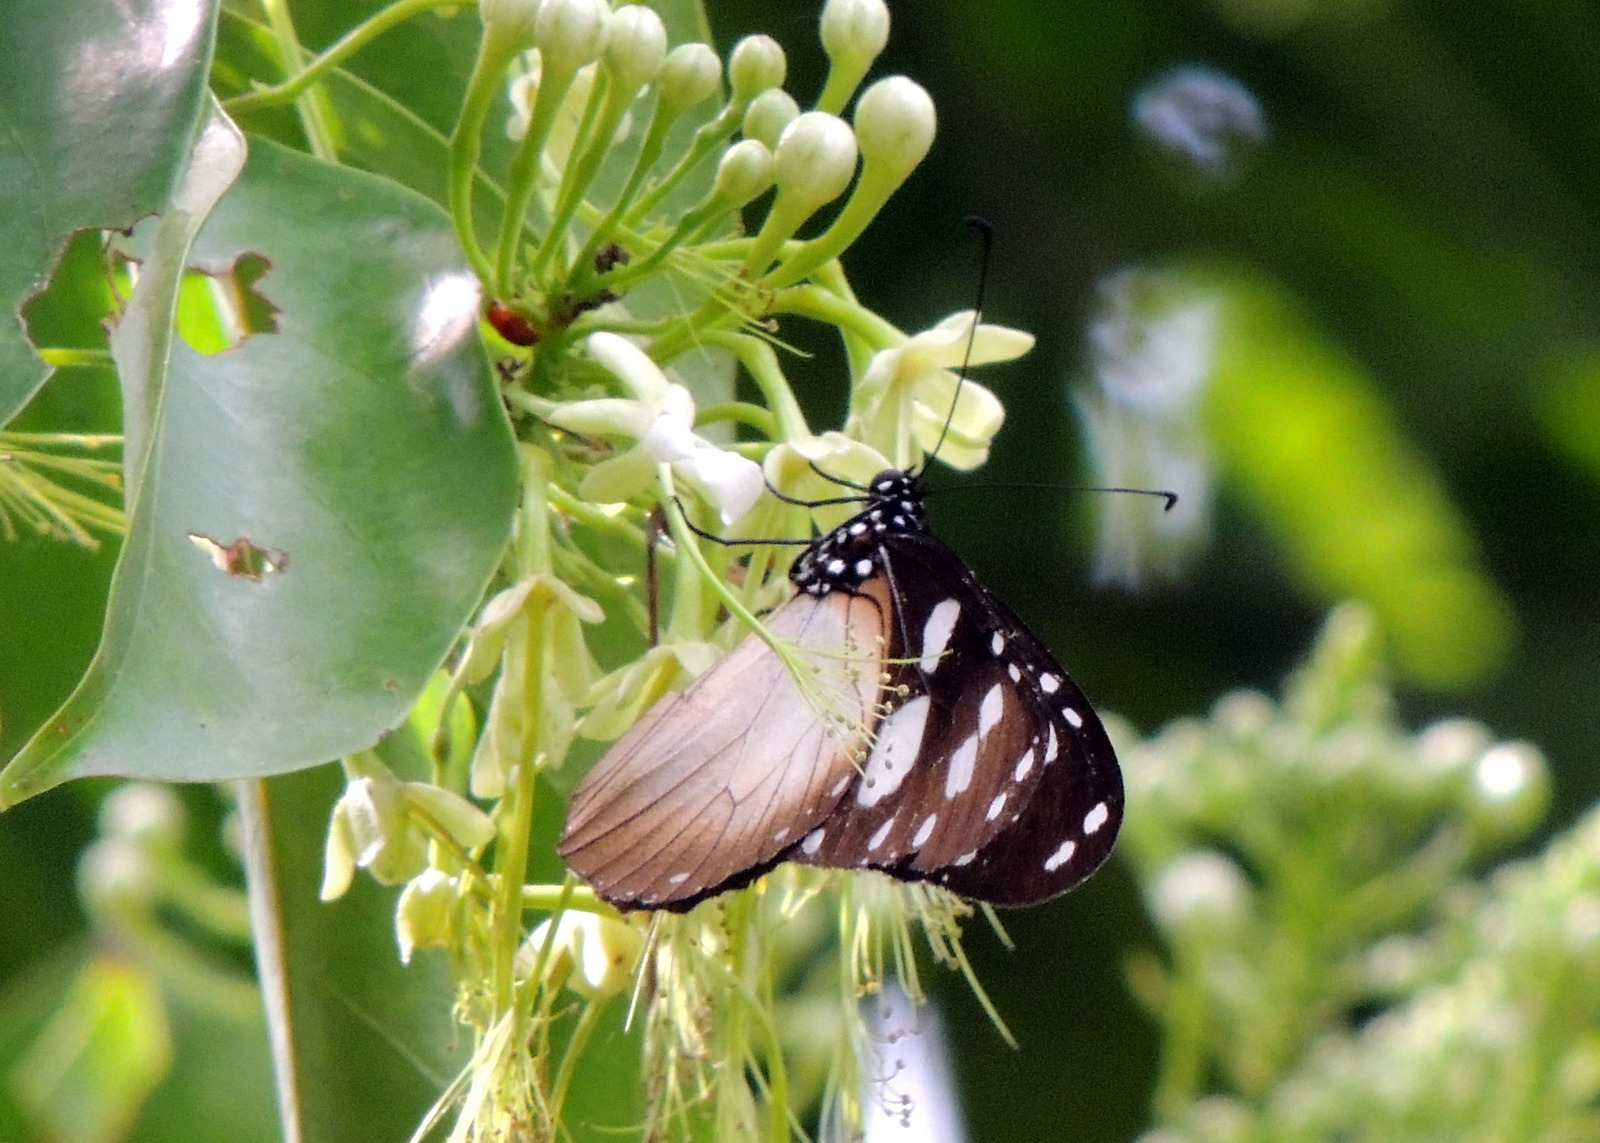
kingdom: Animalia
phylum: Arthropoda
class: Insecta
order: Lepidoptera
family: Nymphalidae
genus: Amauris
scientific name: Amauris damocles
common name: Small monk
